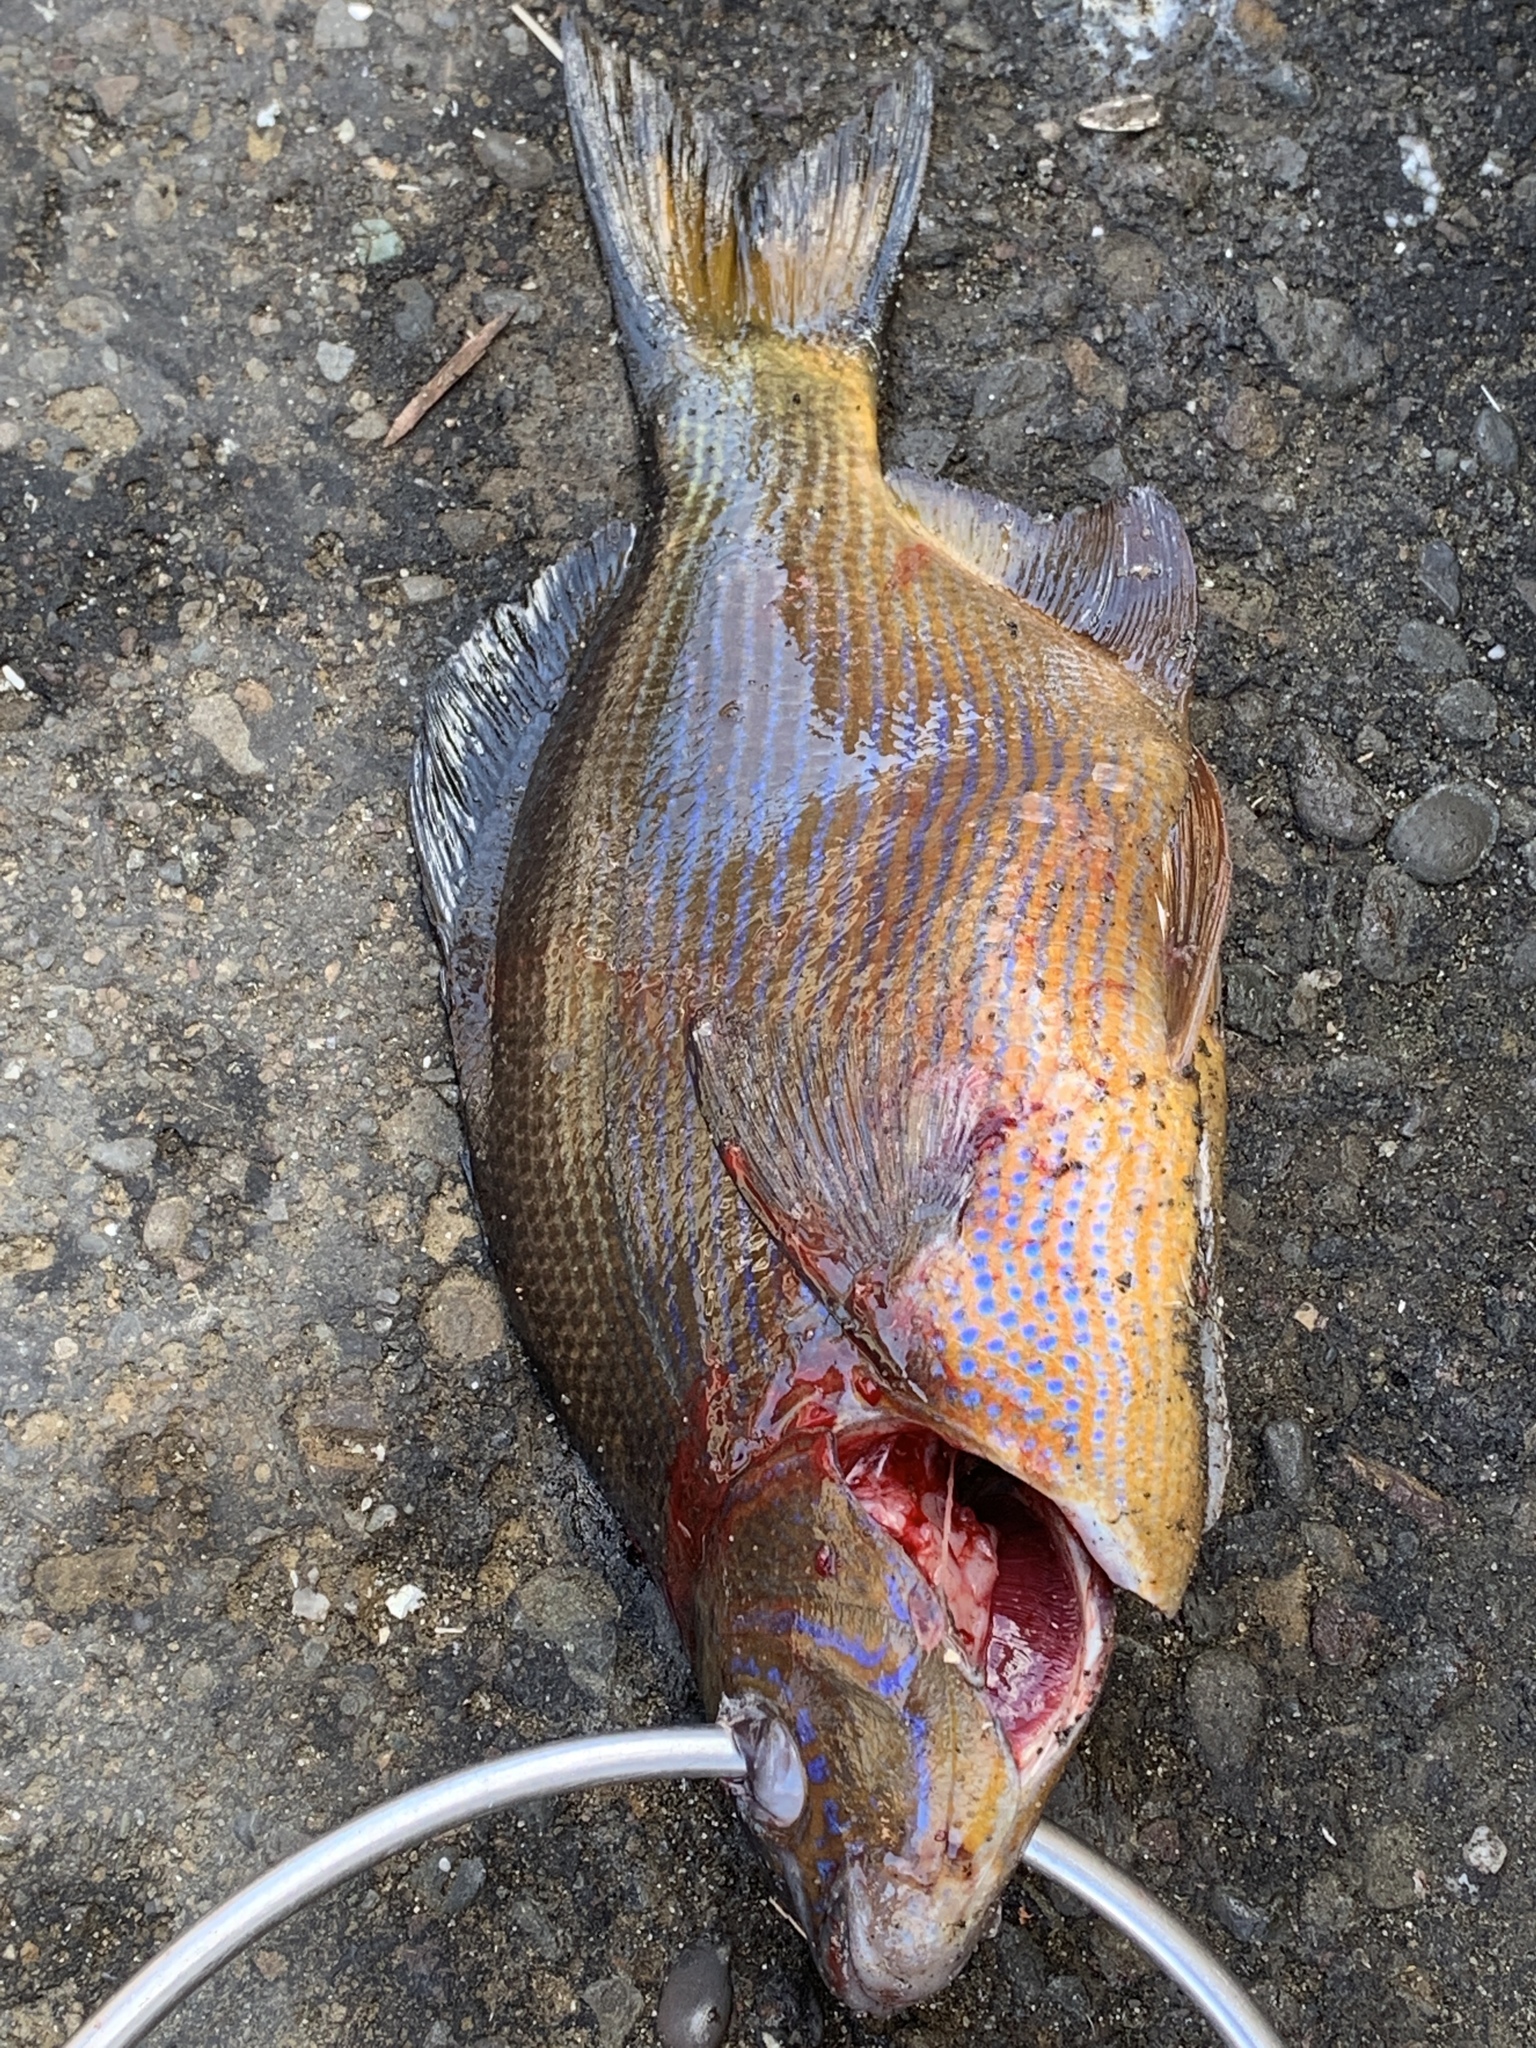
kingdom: Animalia
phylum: Chordata
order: Perciformes
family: Embiotocidae
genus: Embiotoca
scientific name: Embiotoca lateralis
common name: Striped surfperch
